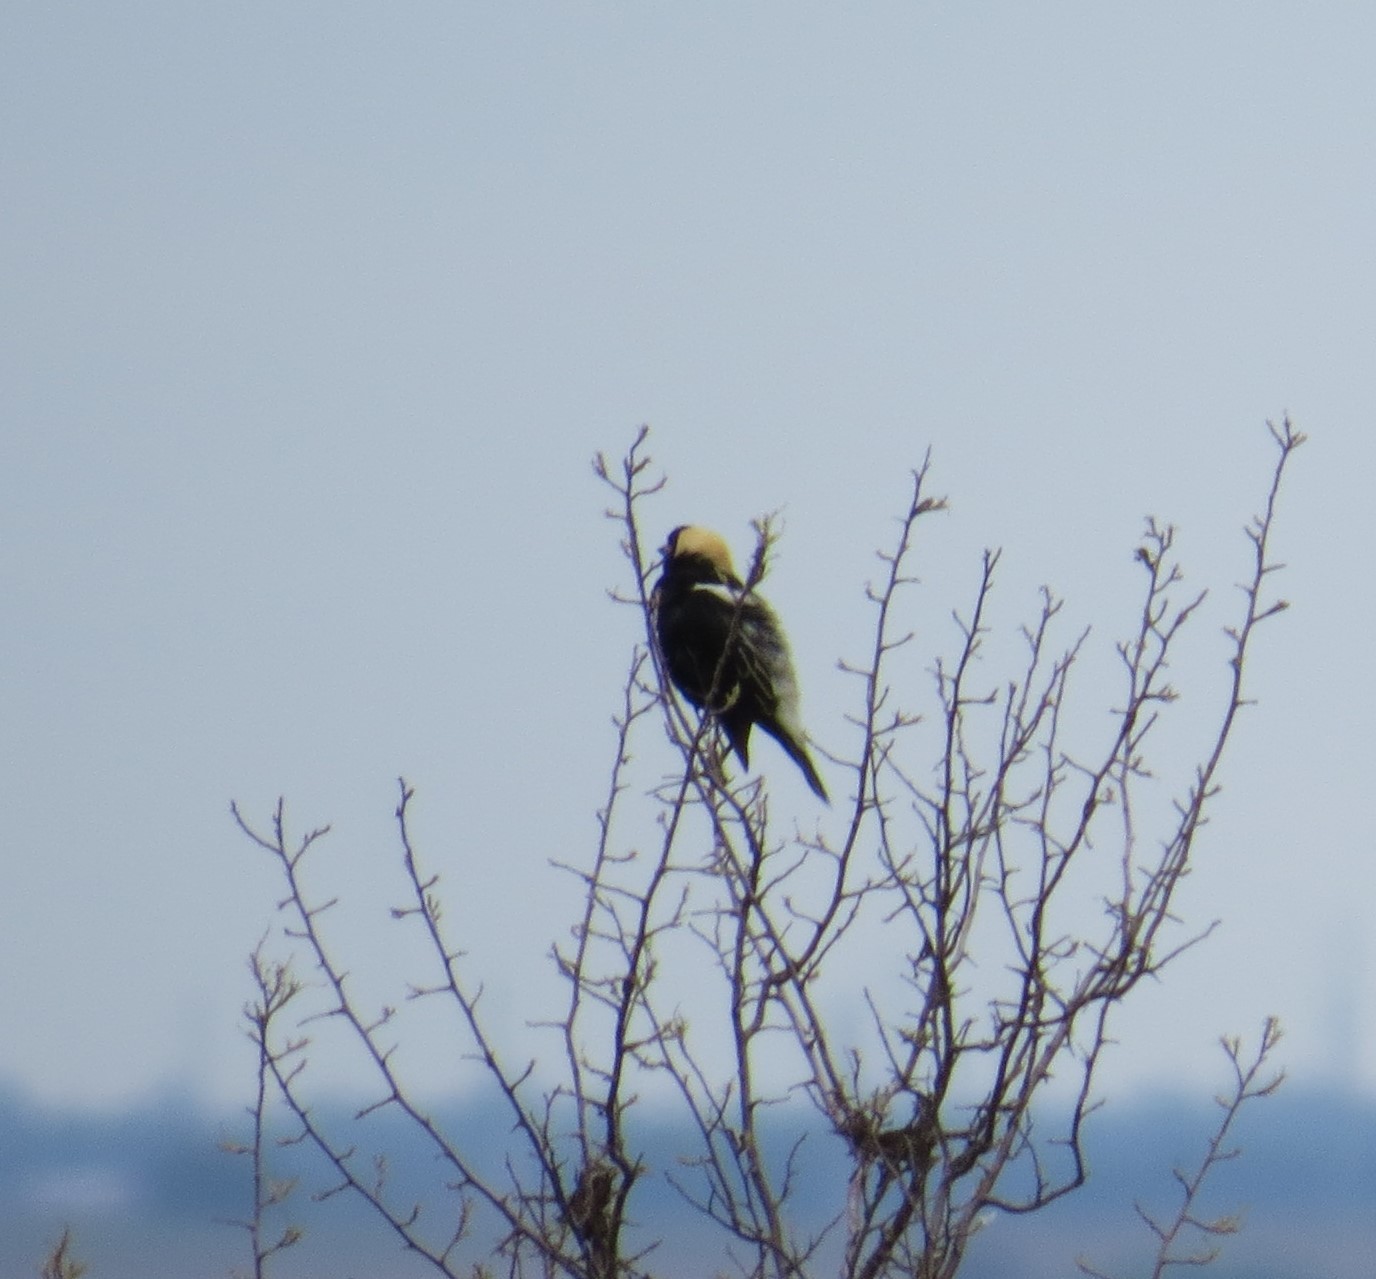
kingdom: Animalia
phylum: Chordata
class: Aves
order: Passeriformes
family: Icteridae
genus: Dolichonyx
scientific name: Dolichonyx oryzivorus
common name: Bobolink
